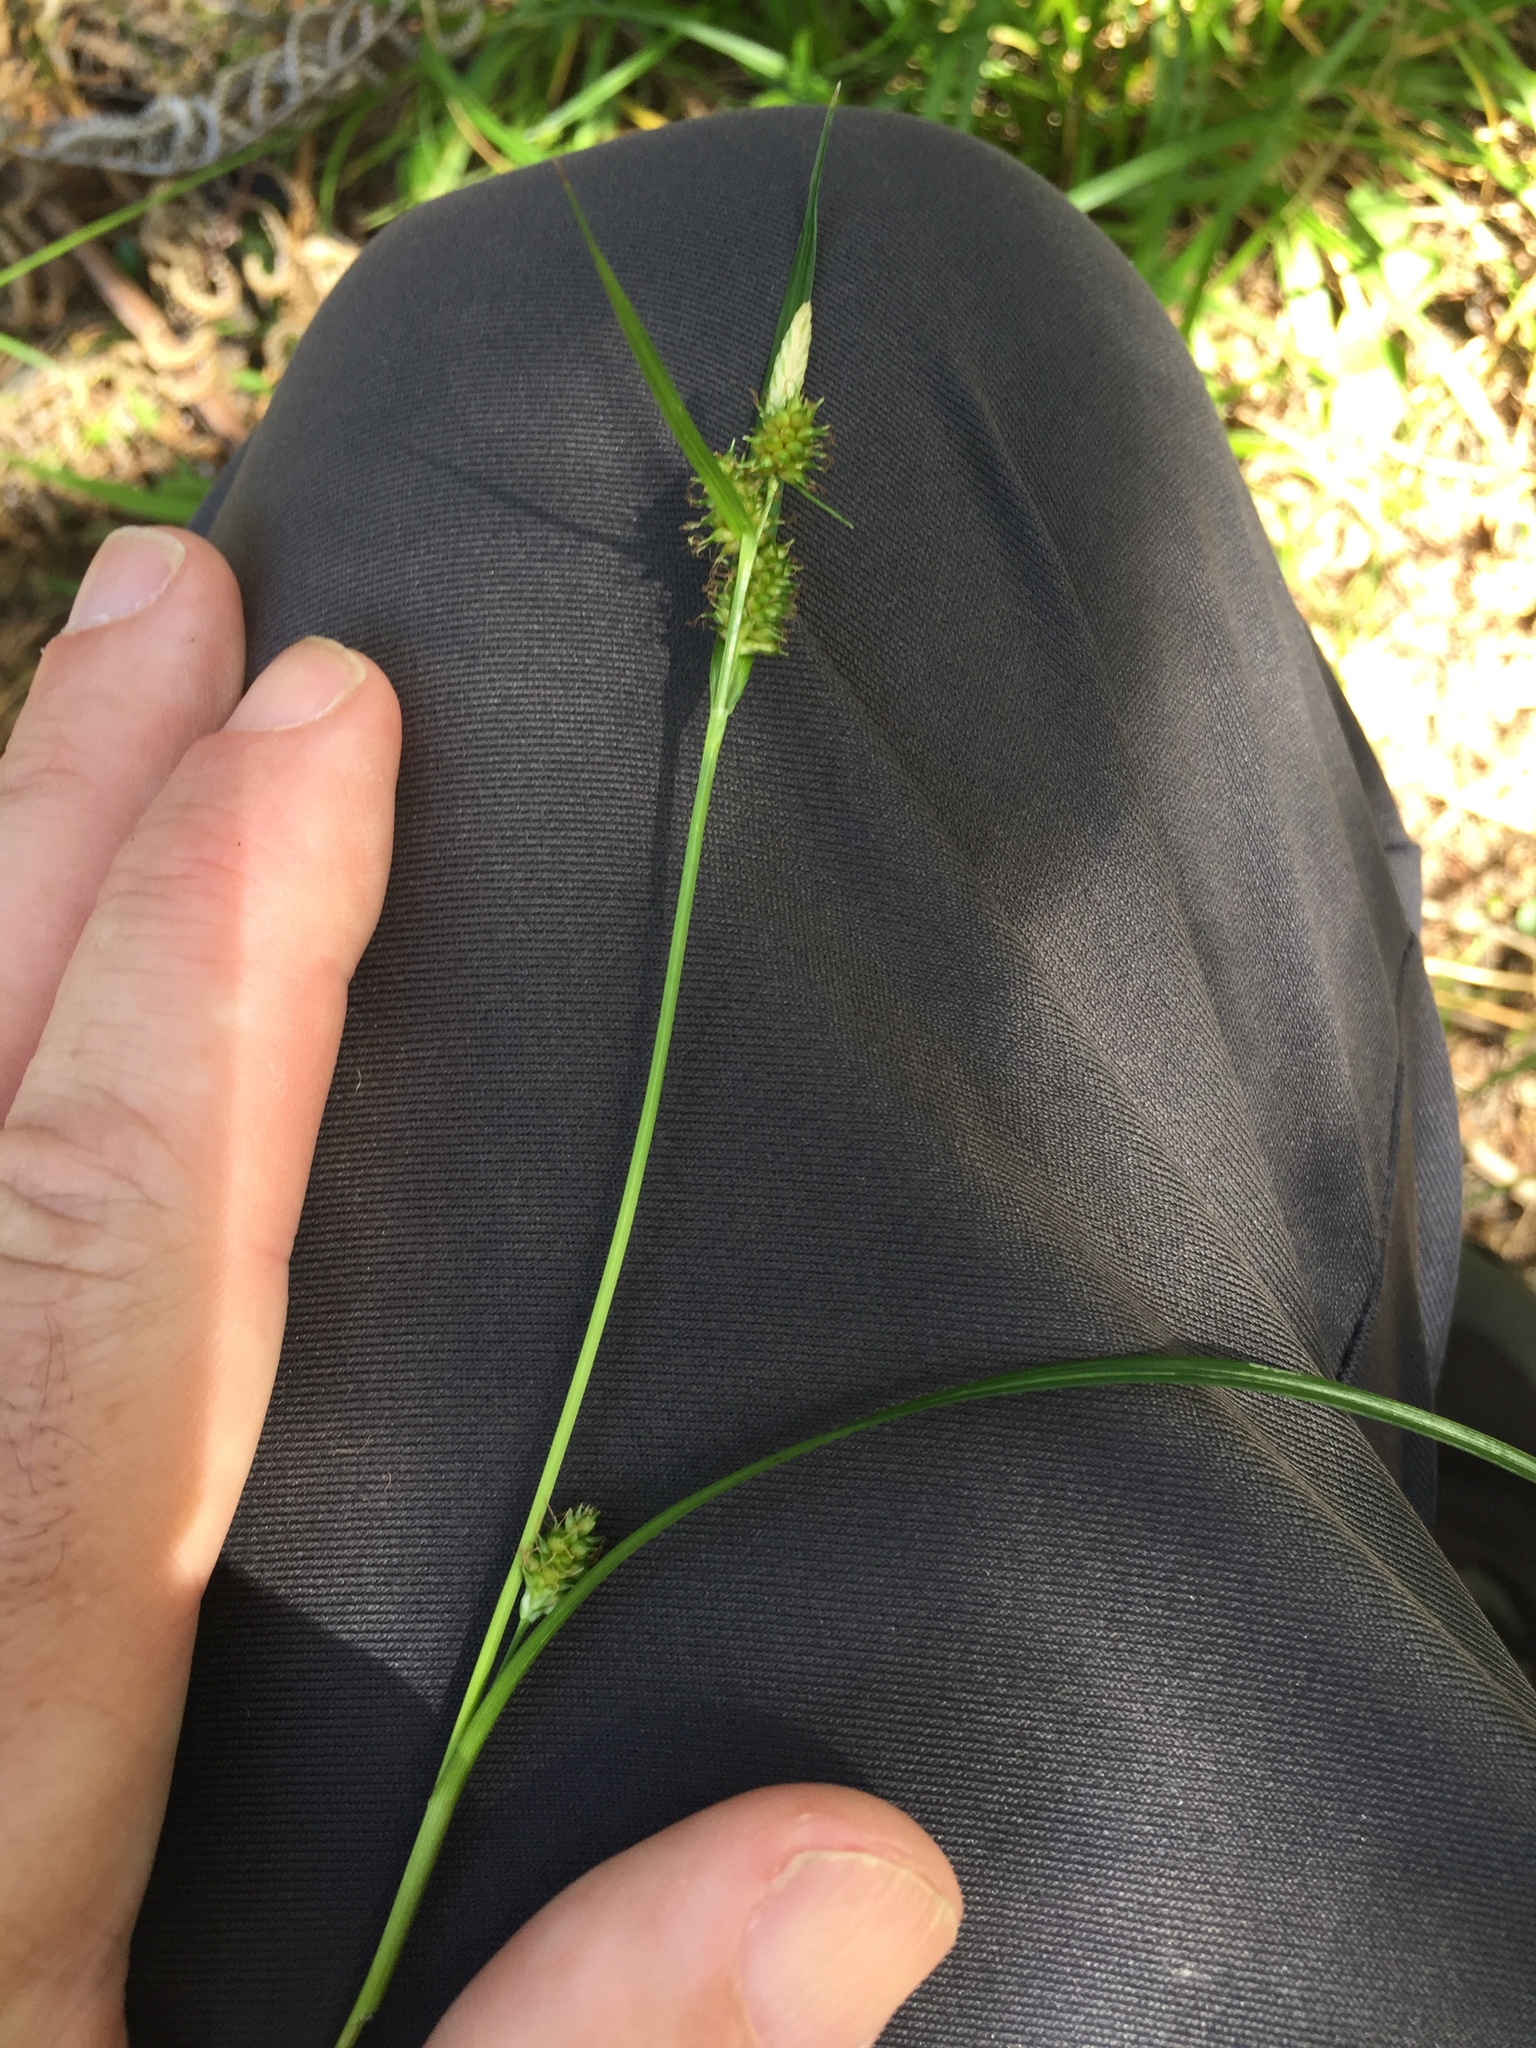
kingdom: Plantae
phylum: Tracheophyta
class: Liliopsida
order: Poales
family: Cyperaceae
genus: Carex
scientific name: Carex demissa
